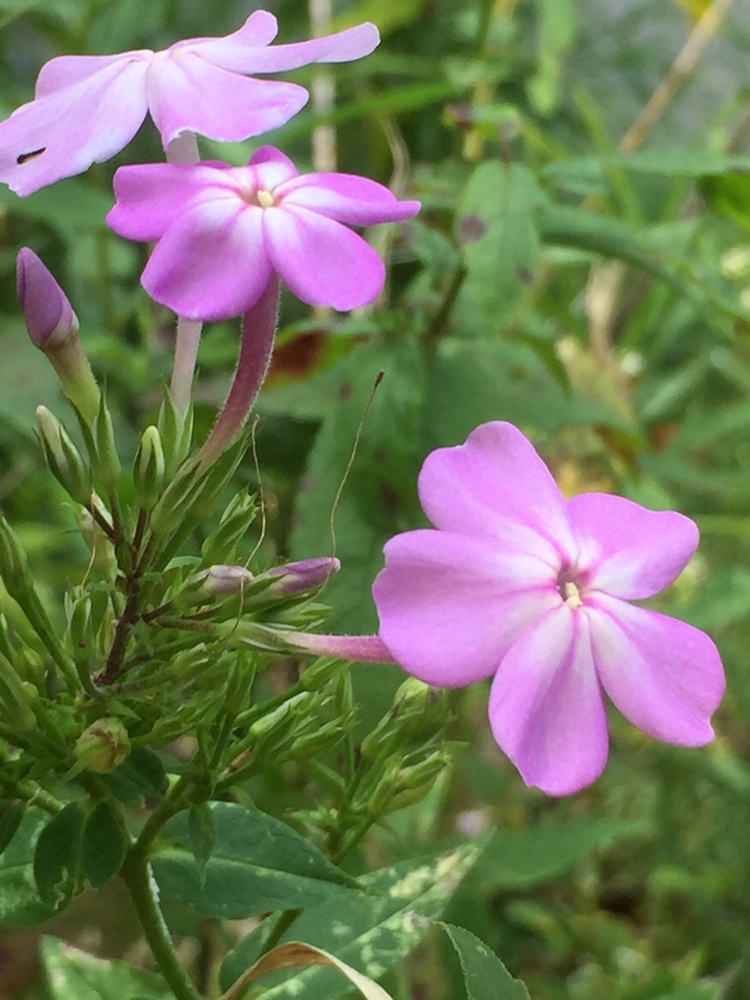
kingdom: Plantae
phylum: Tracheophyta
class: Magnoliopsida
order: Ericales
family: Polemoniaceae
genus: Phlox
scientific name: Phlox paniculata
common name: Fall phlox
